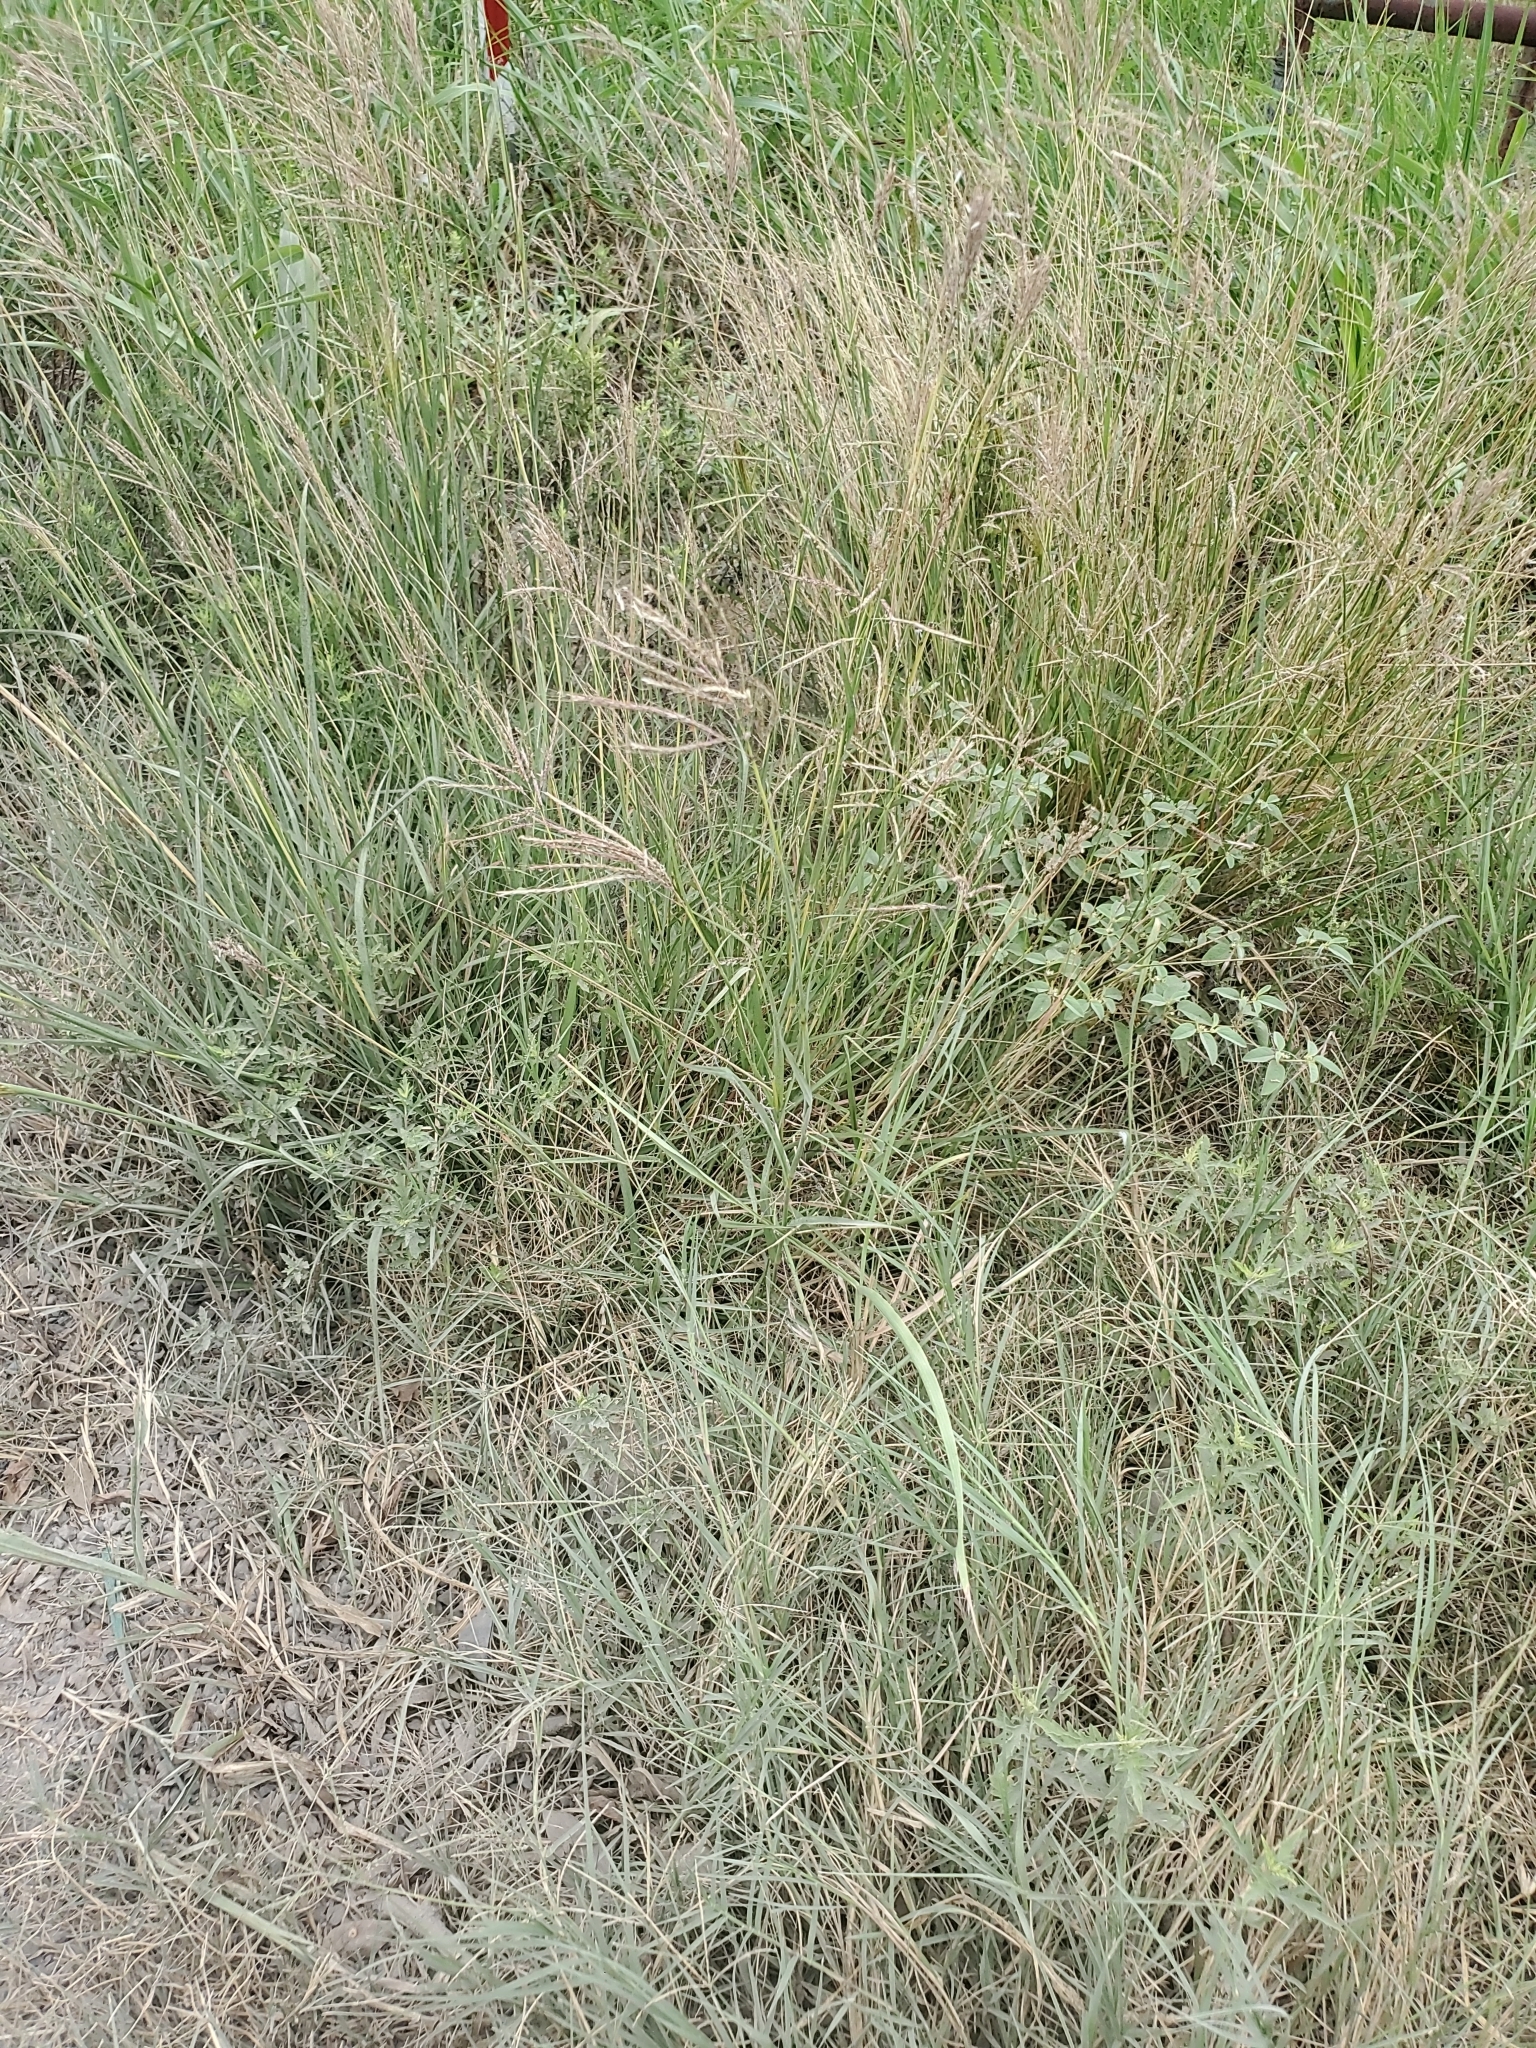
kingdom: Plantae
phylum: Tracheophyta
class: Liliopsida
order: Poales
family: Poaceae
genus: Bothriochloa
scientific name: Bothriochloa ischaemum
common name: Yellow bluestem
